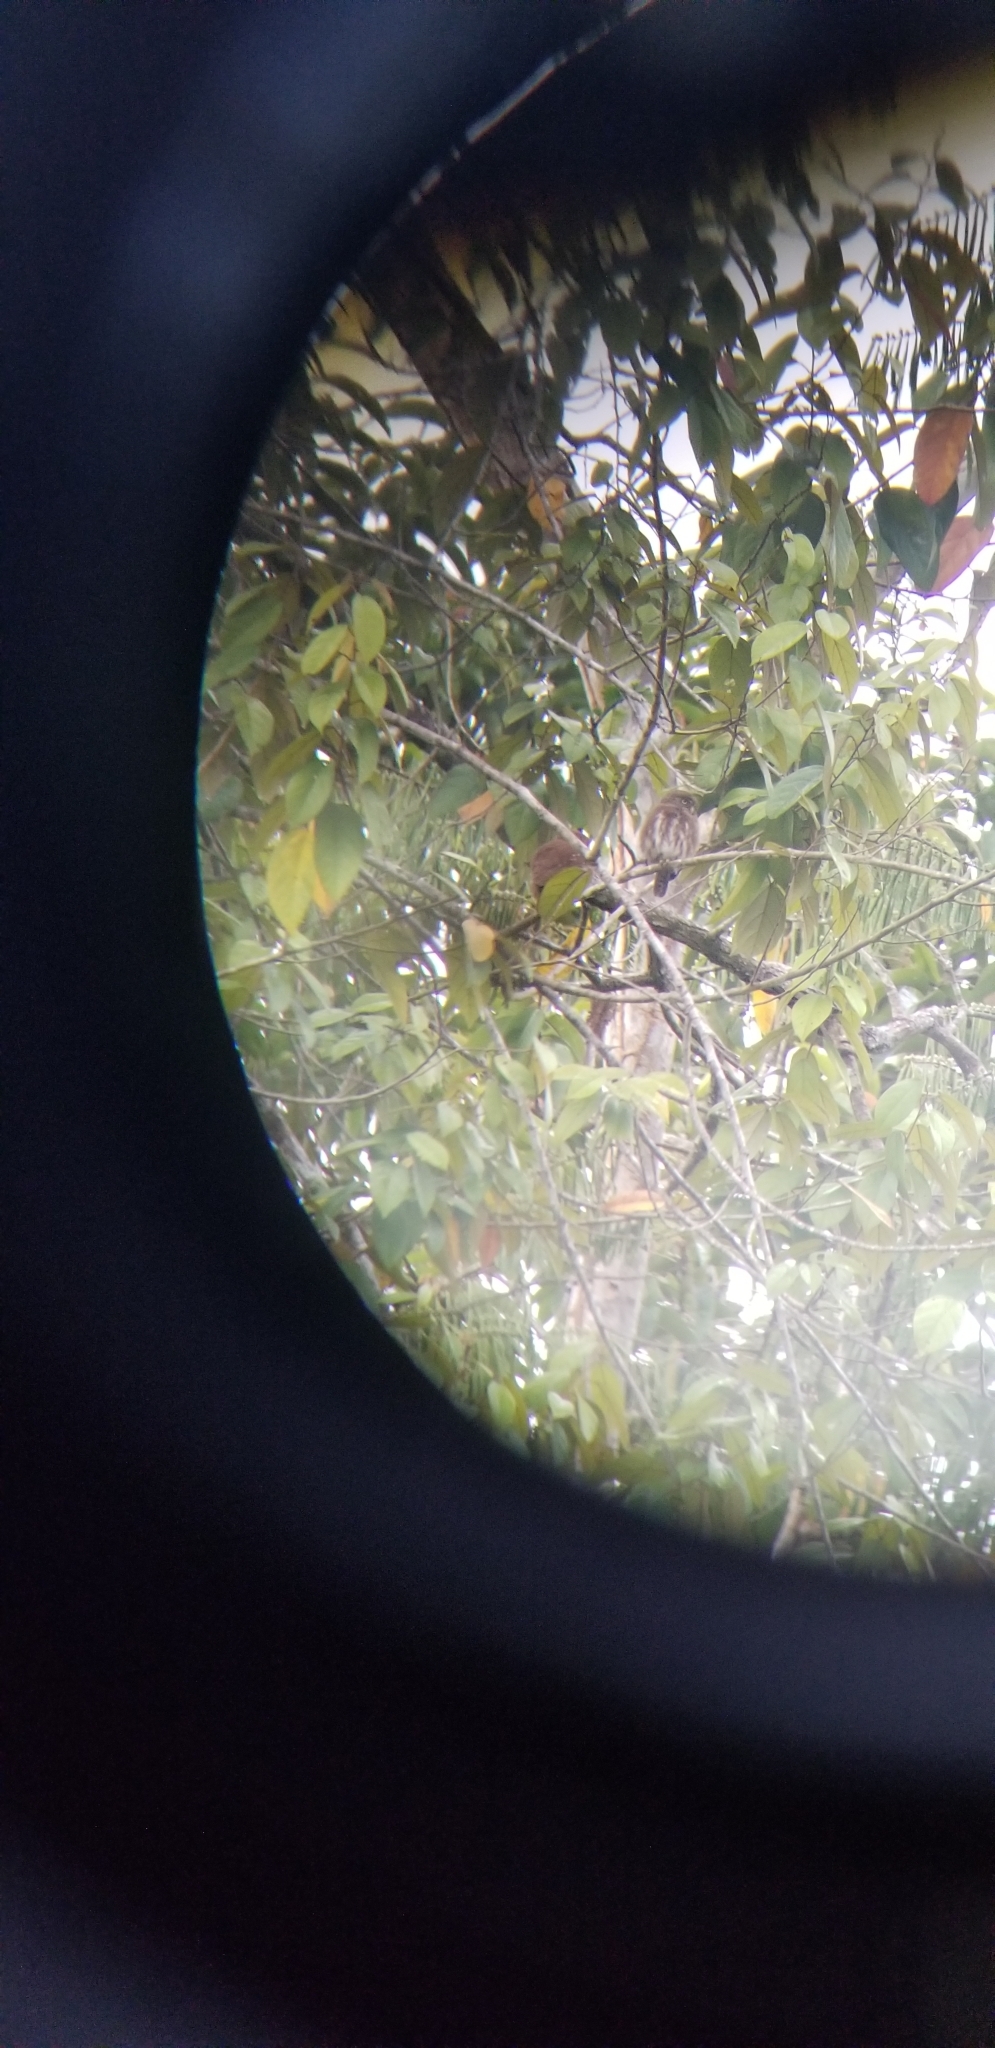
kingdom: Animalia
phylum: Chordata
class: Aves
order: Strigiformes
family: Strigidae
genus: Glaucidium
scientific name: Glaucidium brasilianum
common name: Ferruginous pygmy-owl
